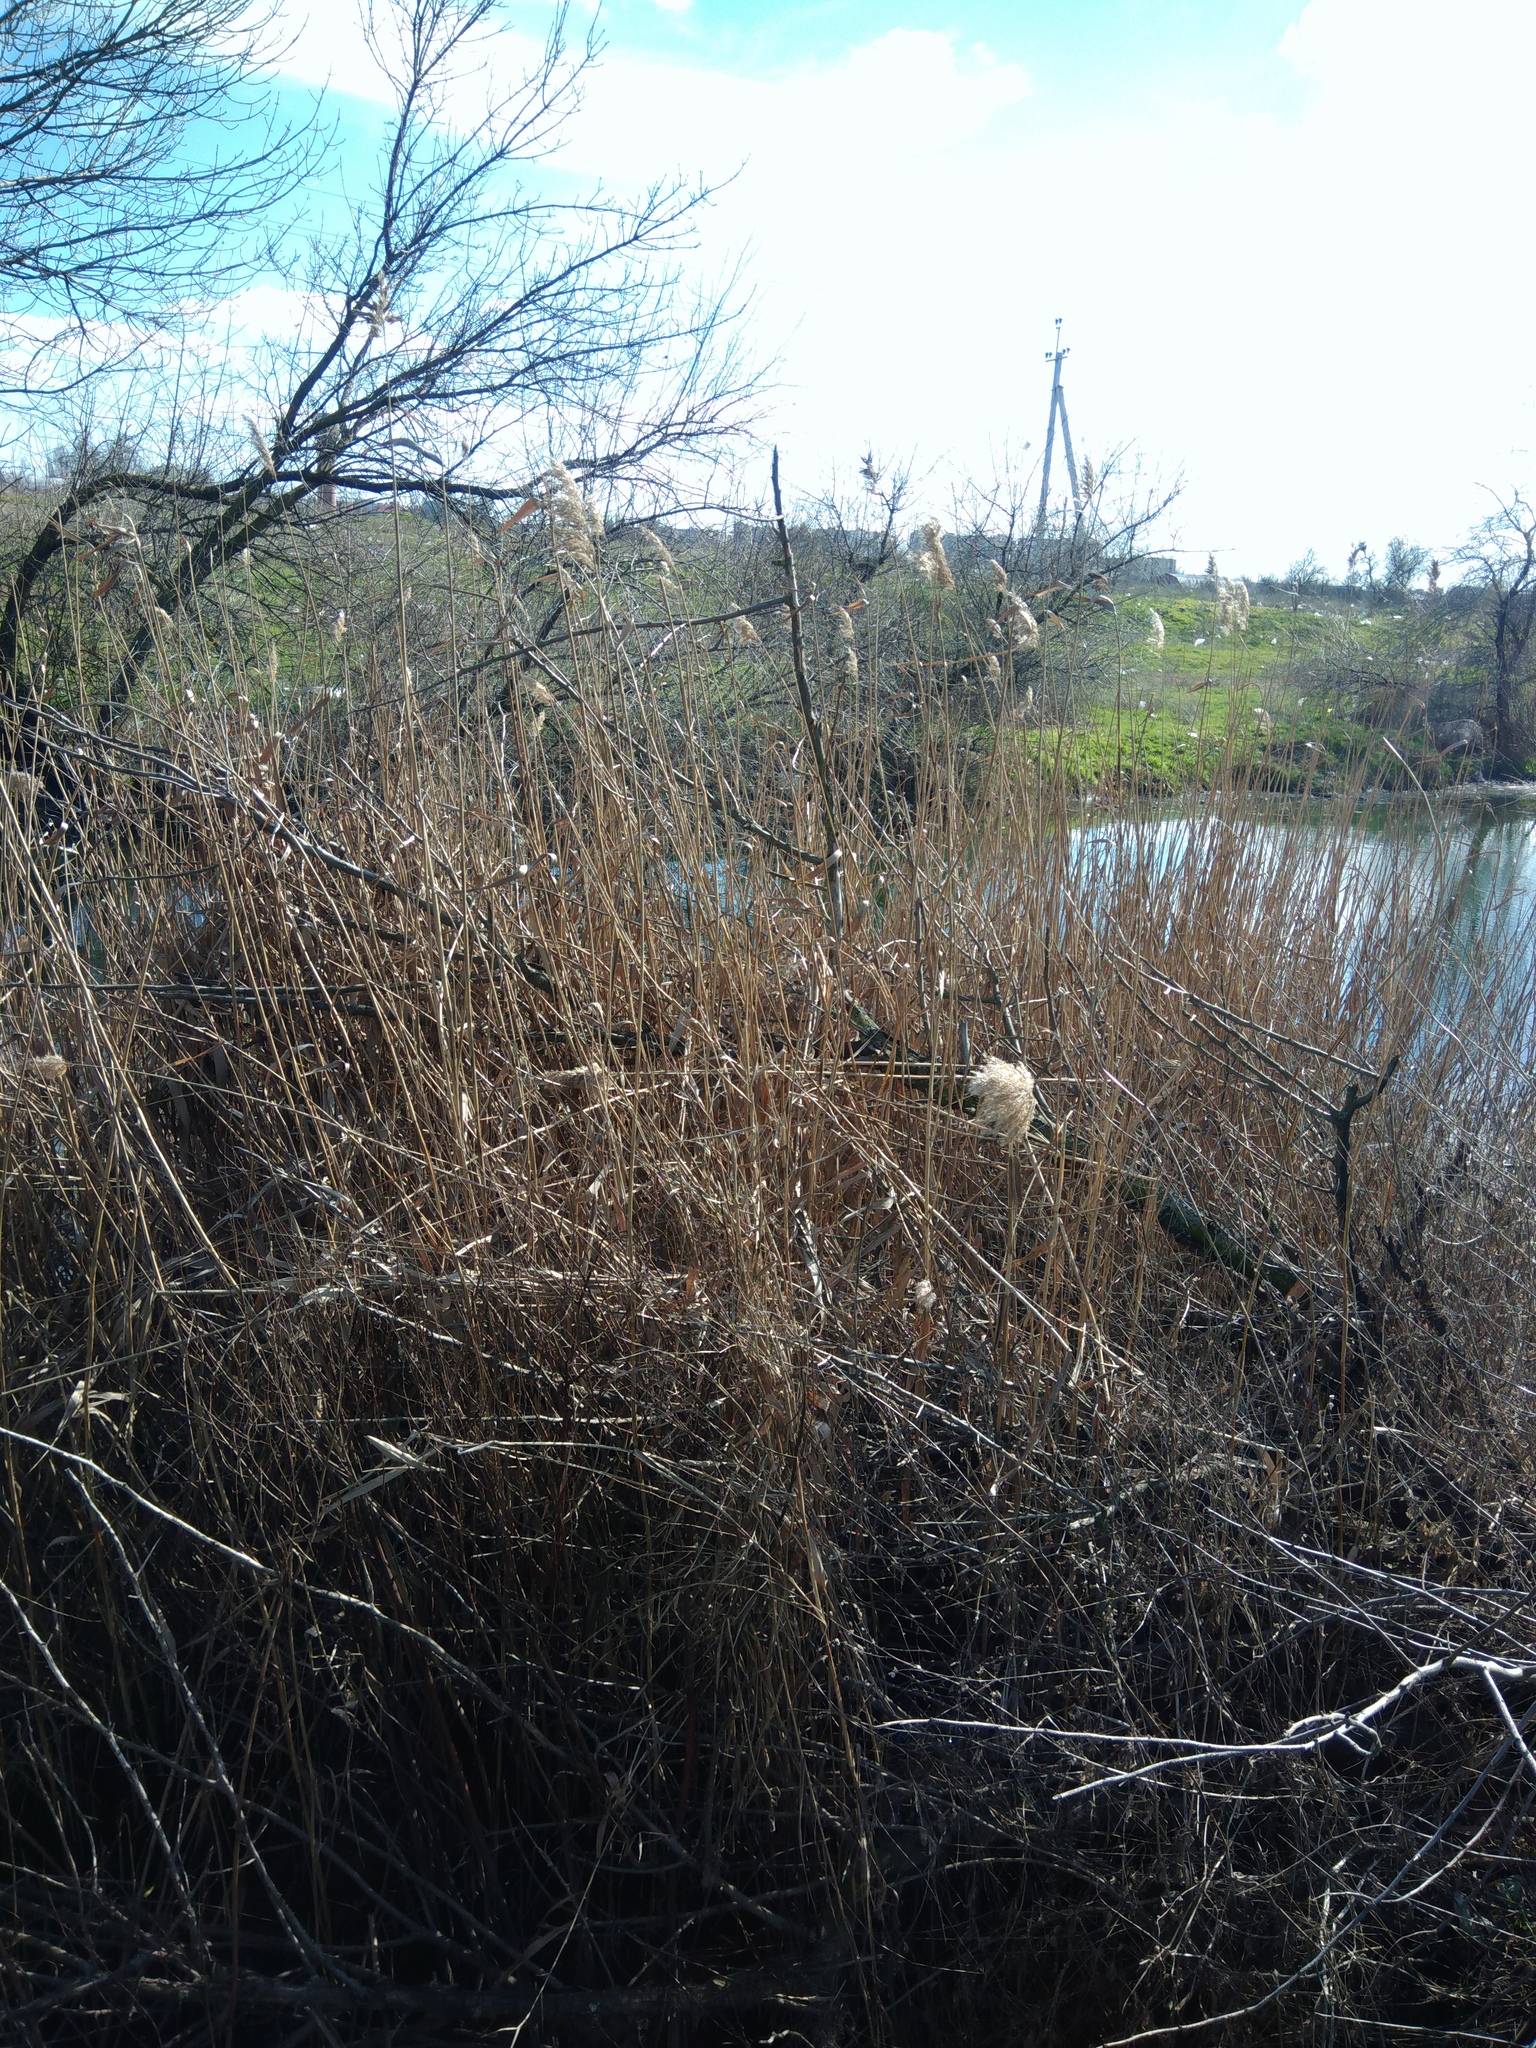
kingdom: Plantae
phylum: Tracheophyta
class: Liliopsida
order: Poales
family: Poaceae
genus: Phragmites
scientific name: Phragmites australis
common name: Common reed
